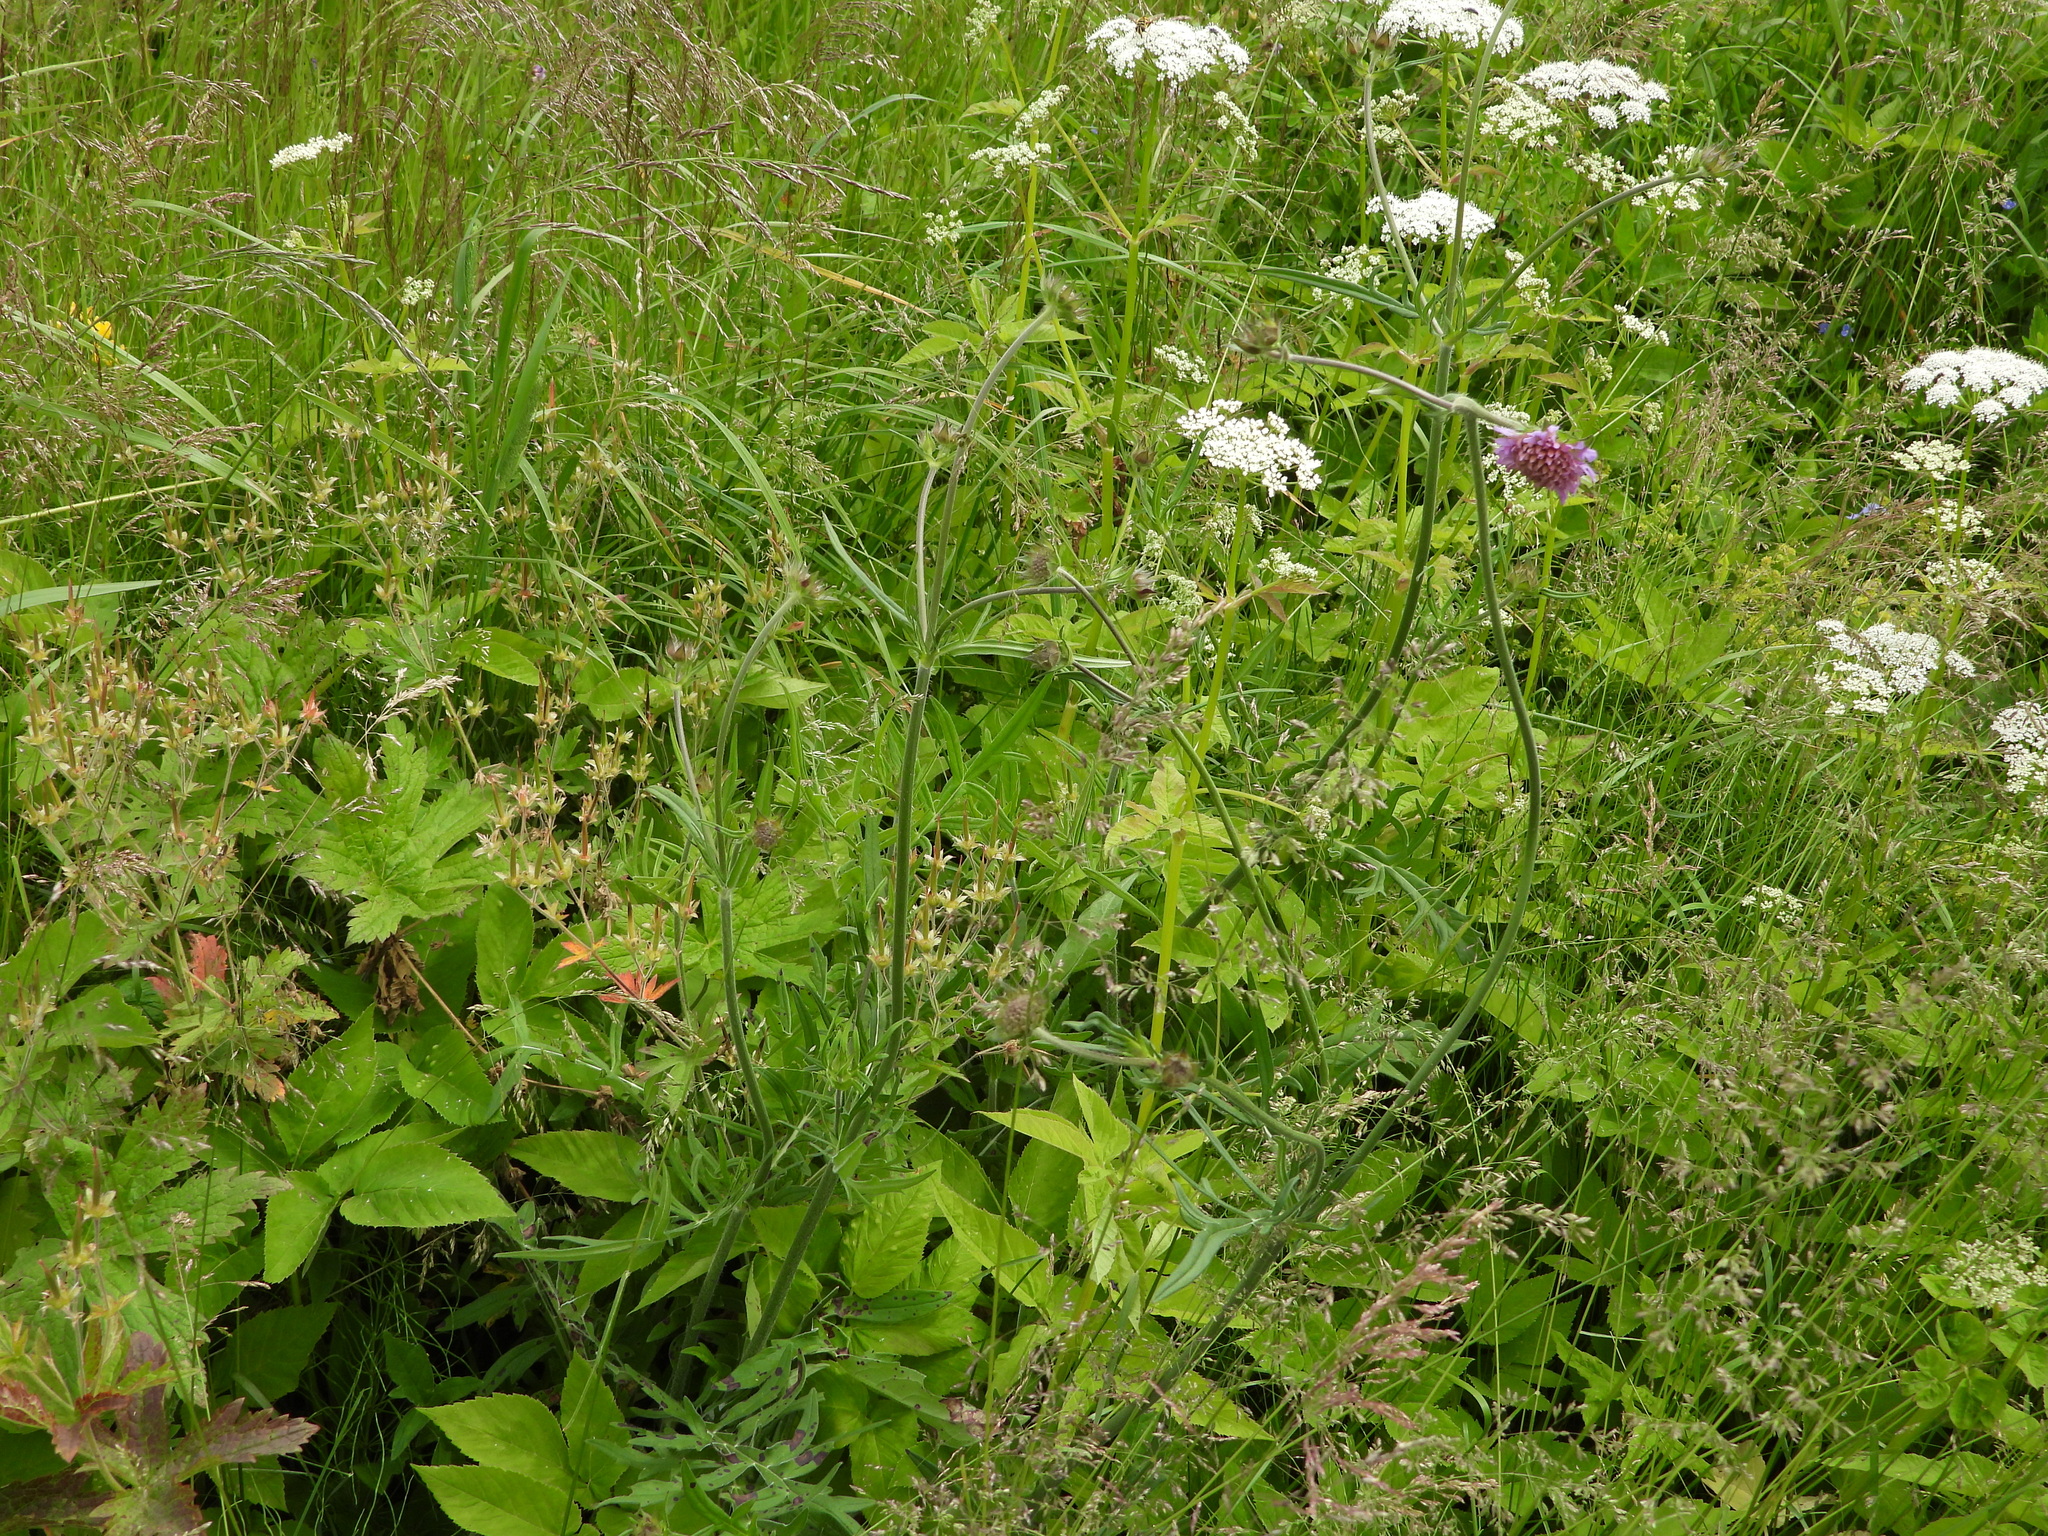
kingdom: Plantae
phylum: Tracheophyta
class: Magnoliopsida
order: Dipsacales
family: Caprifoliaceae
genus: Knautia
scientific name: Knautia arvensis
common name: Field scabiosa
